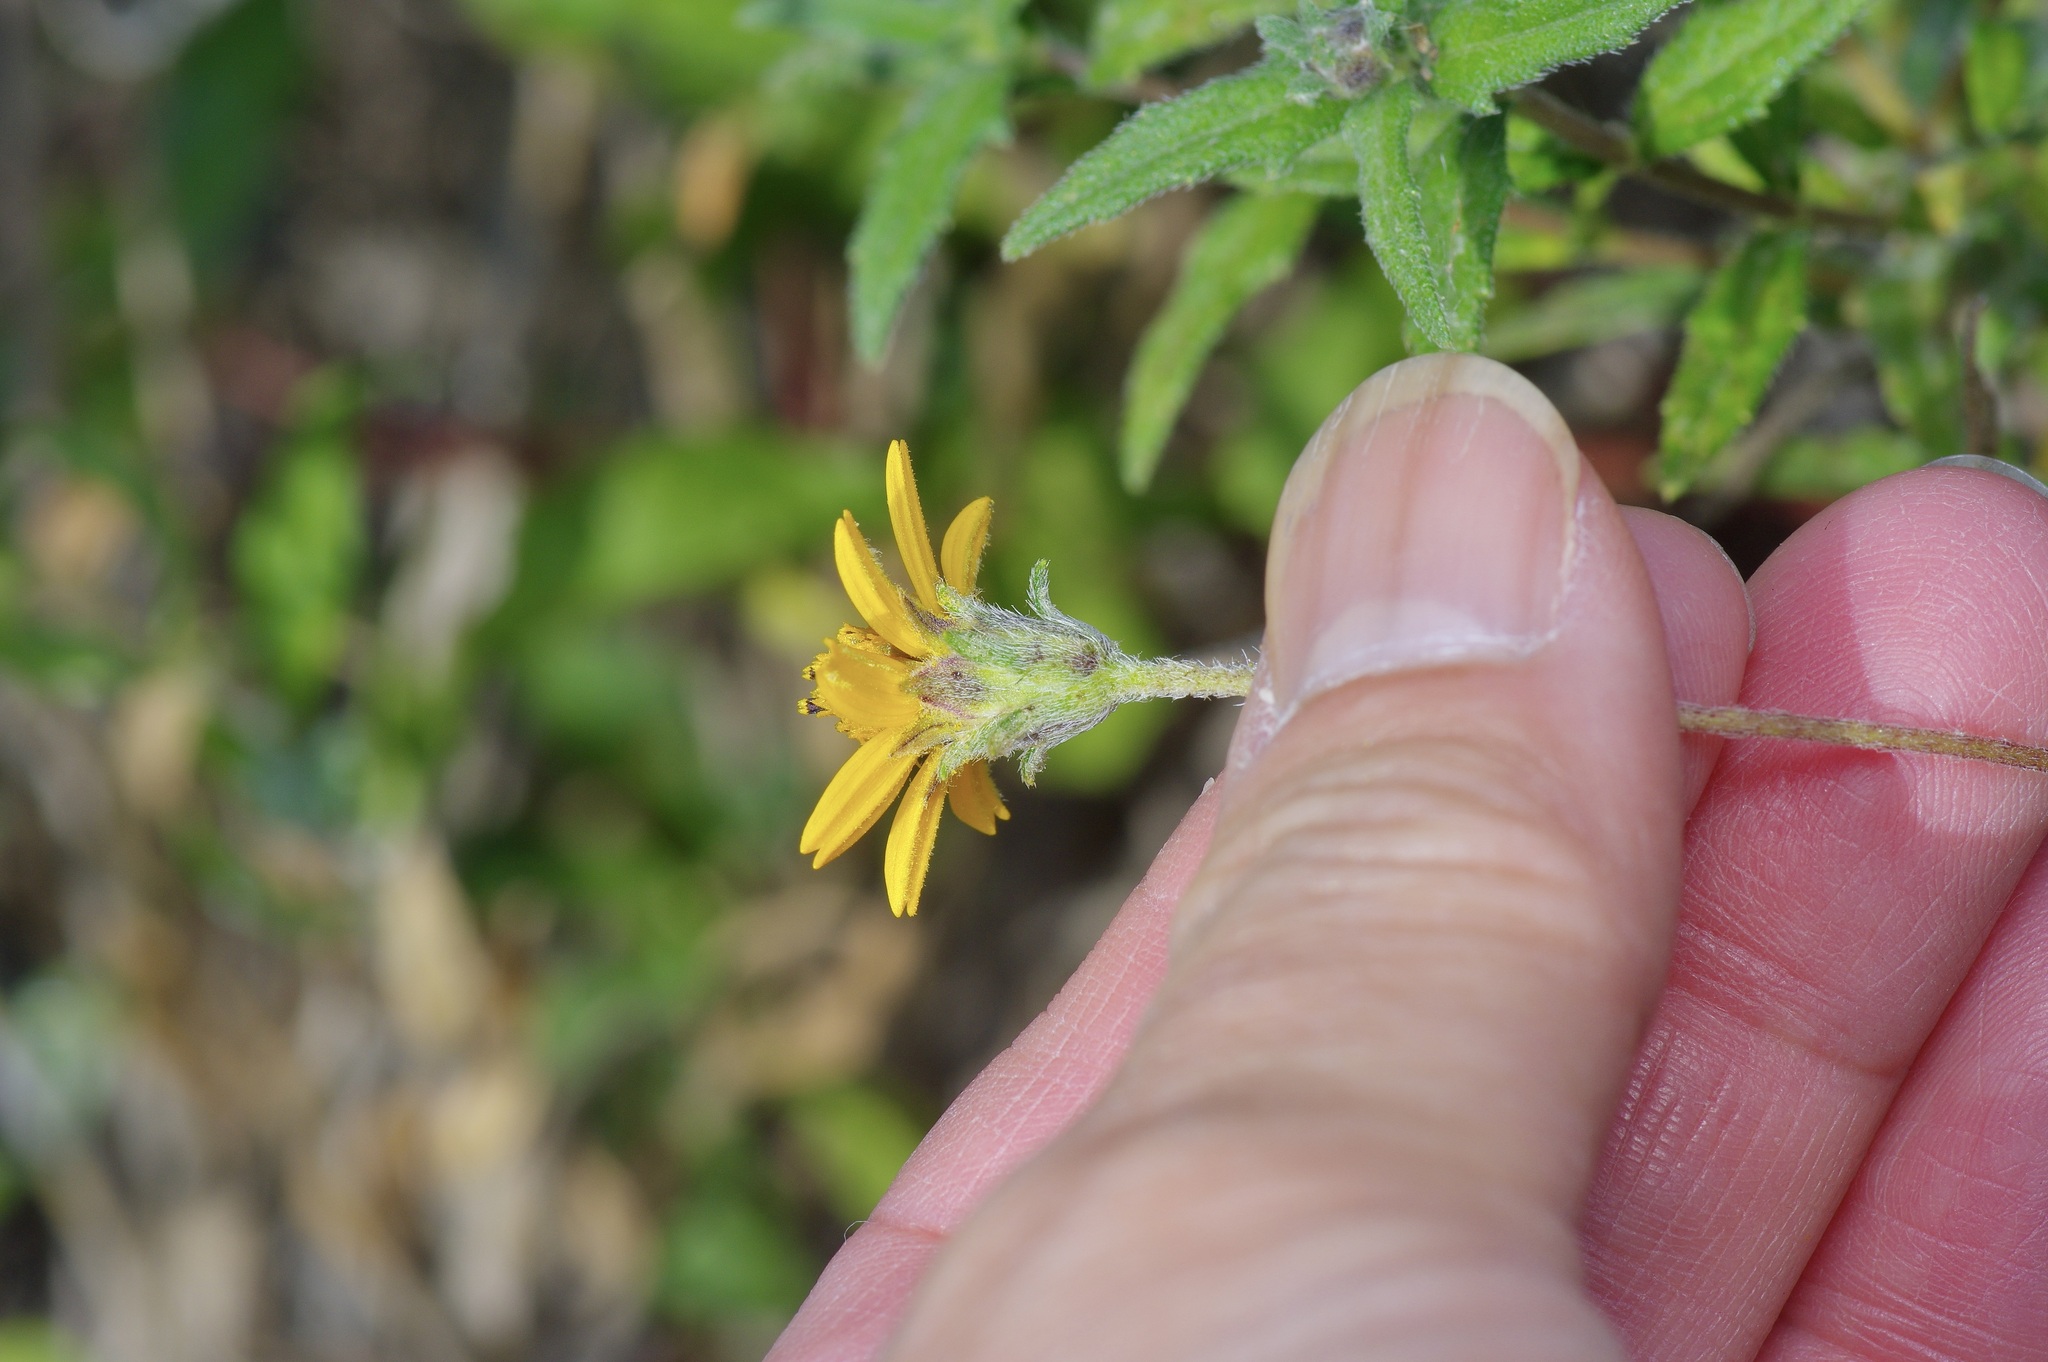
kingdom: Plantae
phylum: Tracheophyta
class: Magnoliopsida
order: Asterales
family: Asteraceae
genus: Wedelia
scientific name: Wedelia acapulcensis
